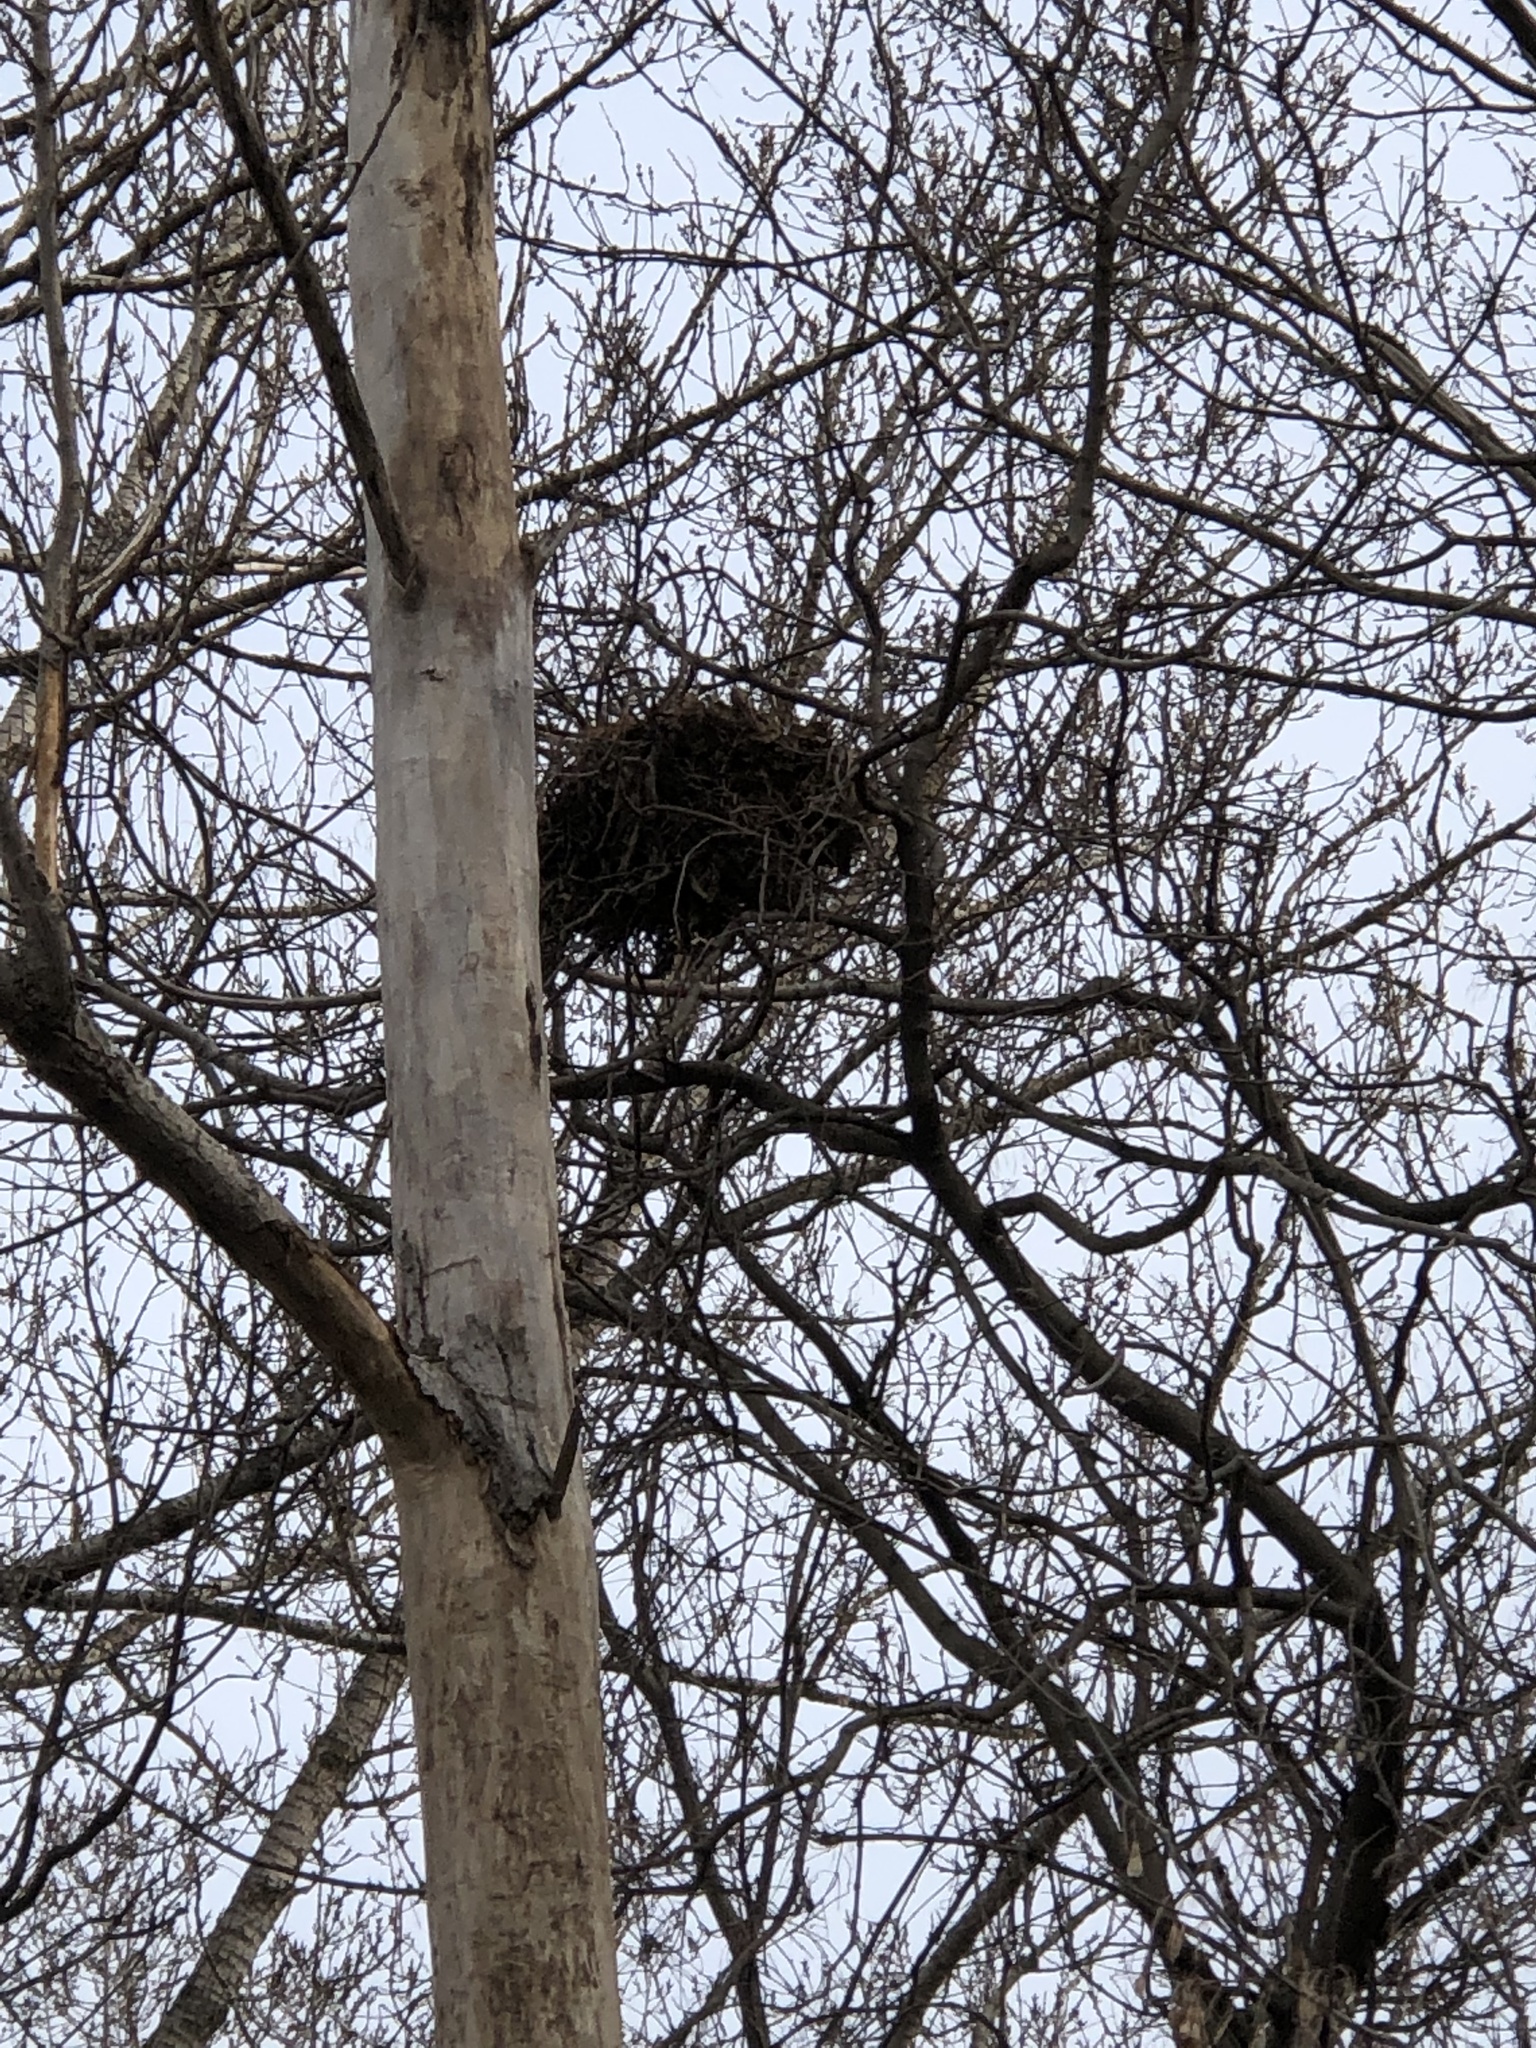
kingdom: Animalia
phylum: Chordata
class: Mammalia
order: Rodentia
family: Sciuridae
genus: Sciurus
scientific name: Sciurus carolinensis
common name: Eastern gray squirrel
